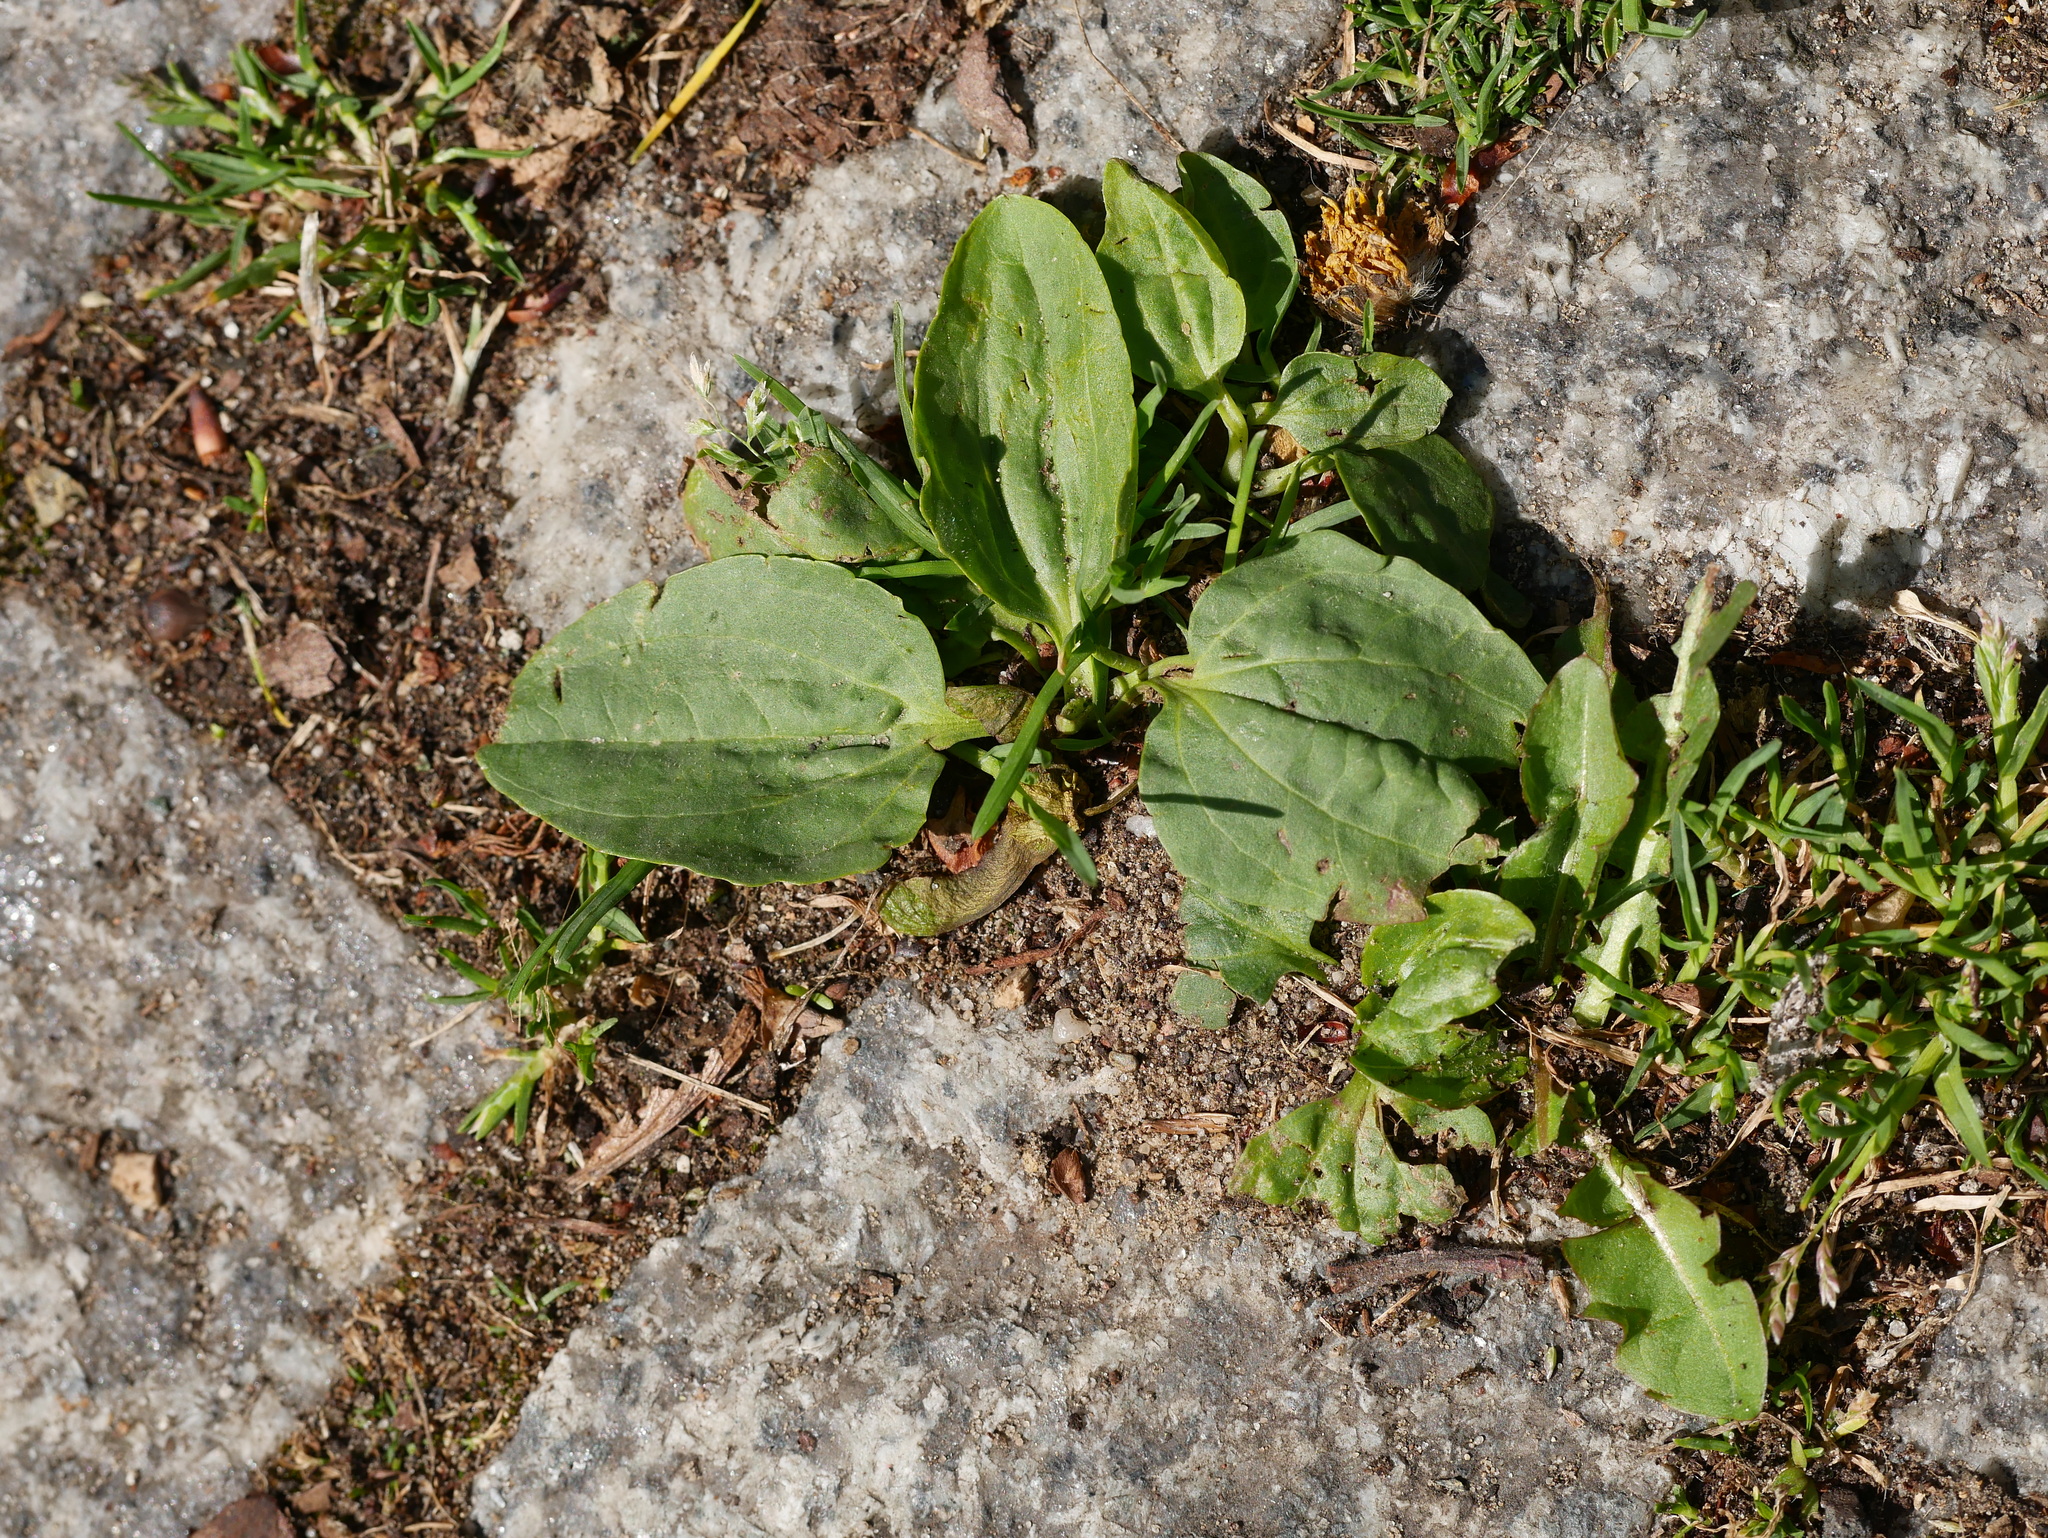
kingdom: Plantae
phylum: Tracheophyta
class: Magnoliopsida
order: Lamiales
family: Plantaginaceae
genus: Plantago
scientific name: Plantago major
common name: Common plantain
